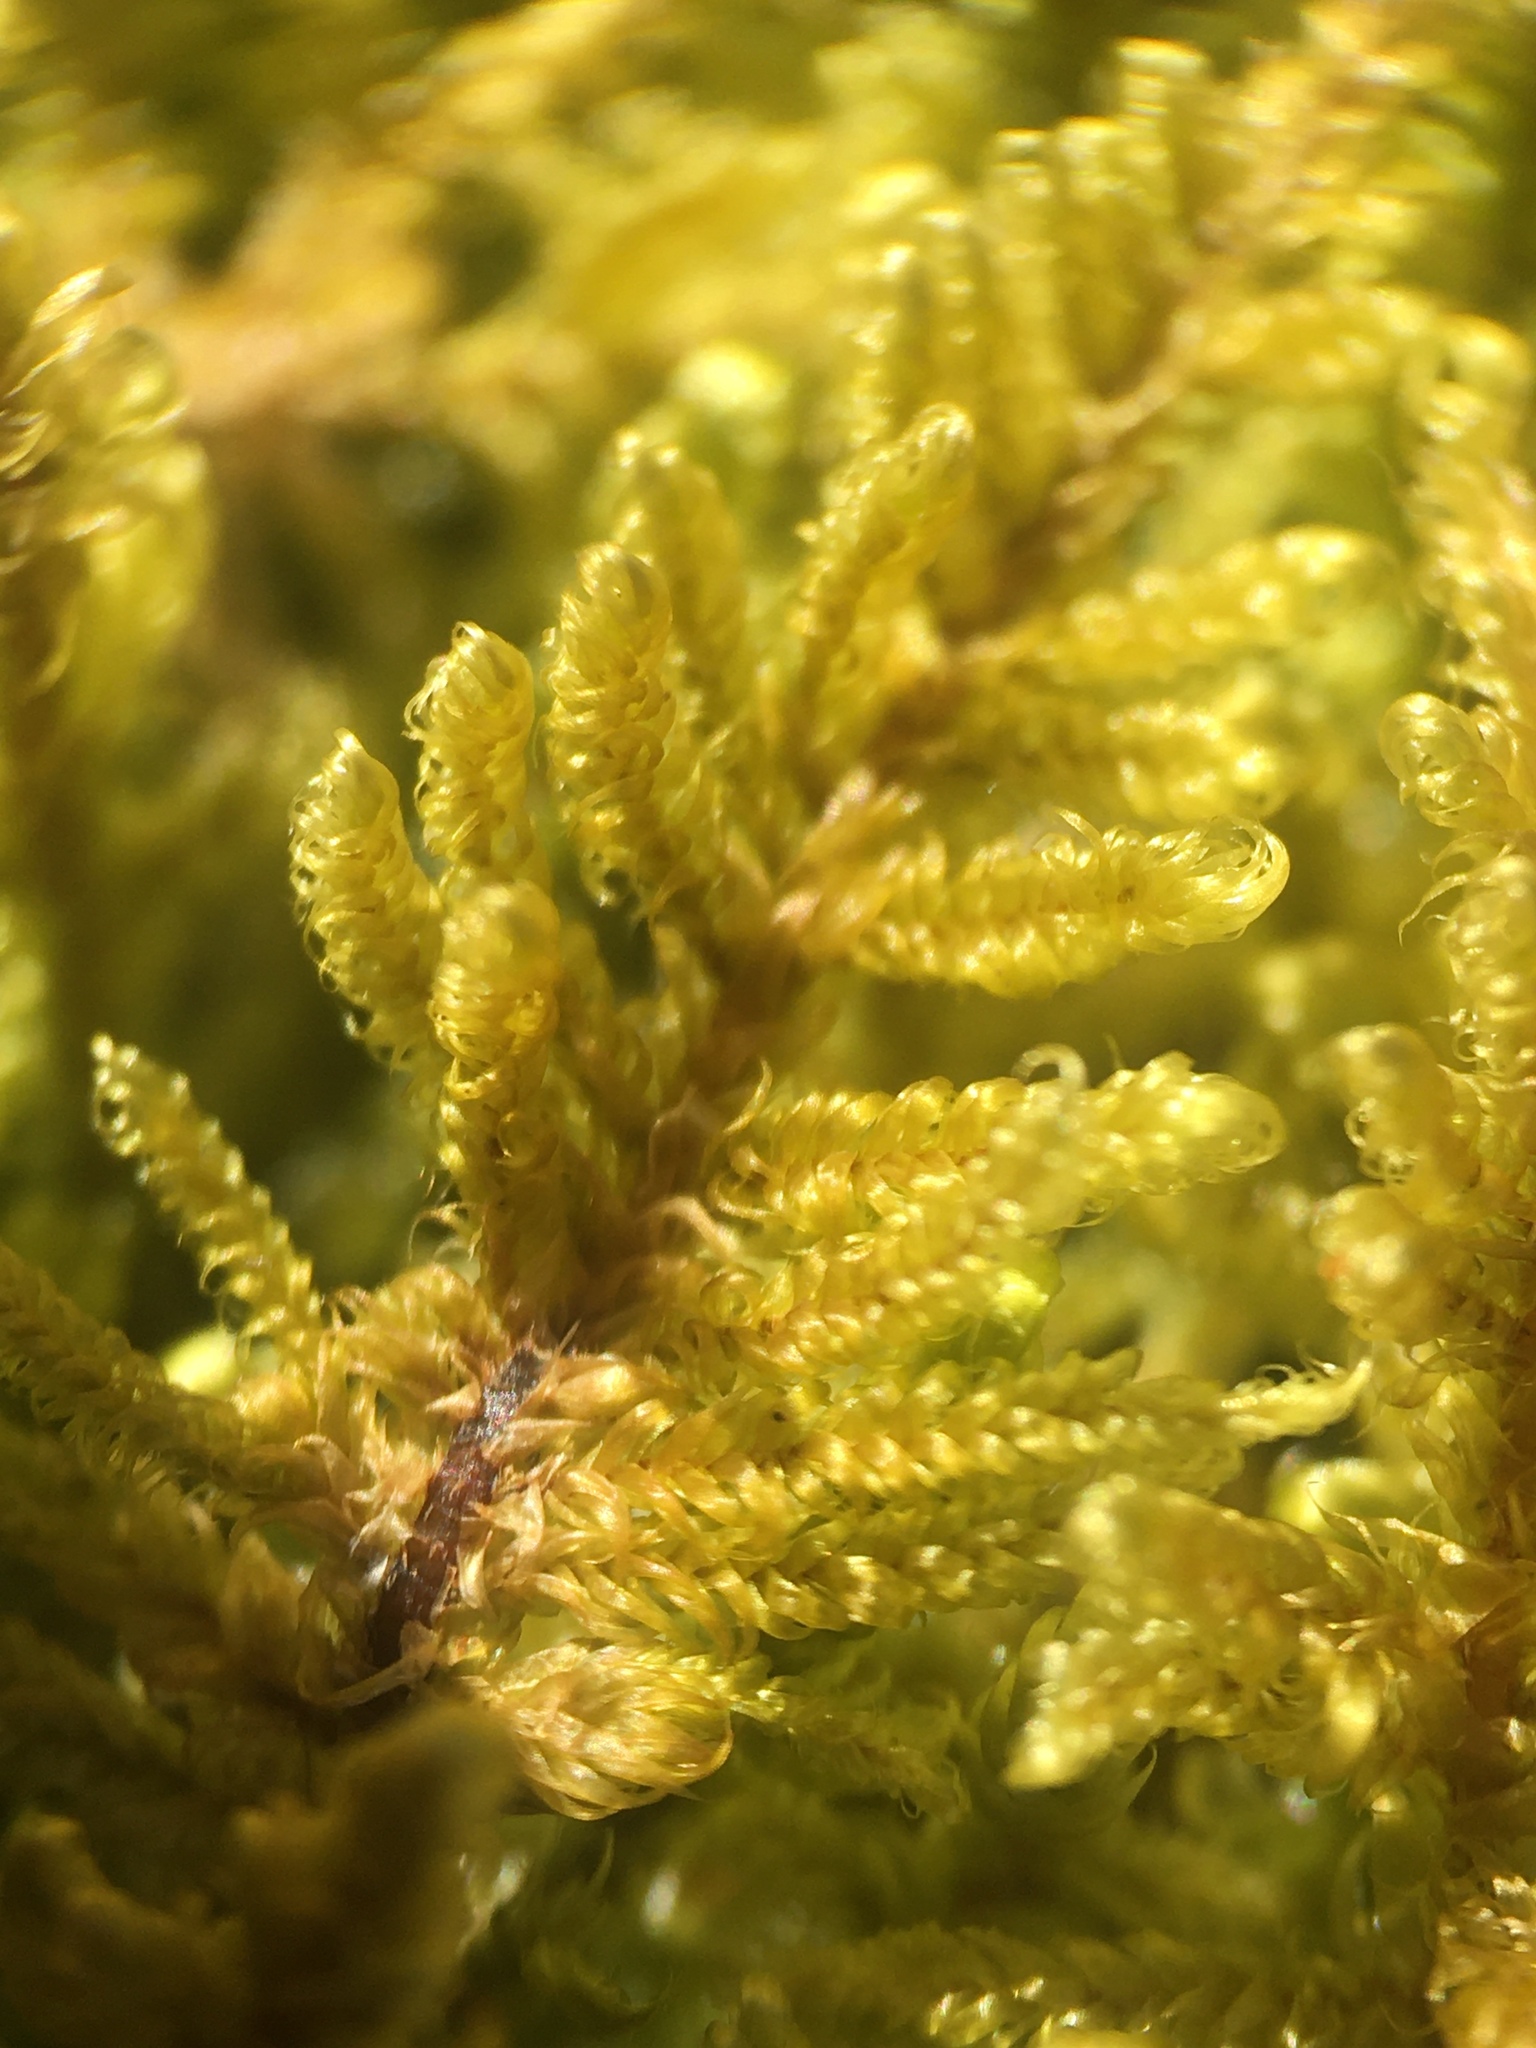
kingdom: Plantae
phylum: Bryophyta
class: Bryopsida
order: Hypnales
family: Callicladiaceae
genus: Callicladium
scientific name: Callicladium imponens
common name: Brocade moss
